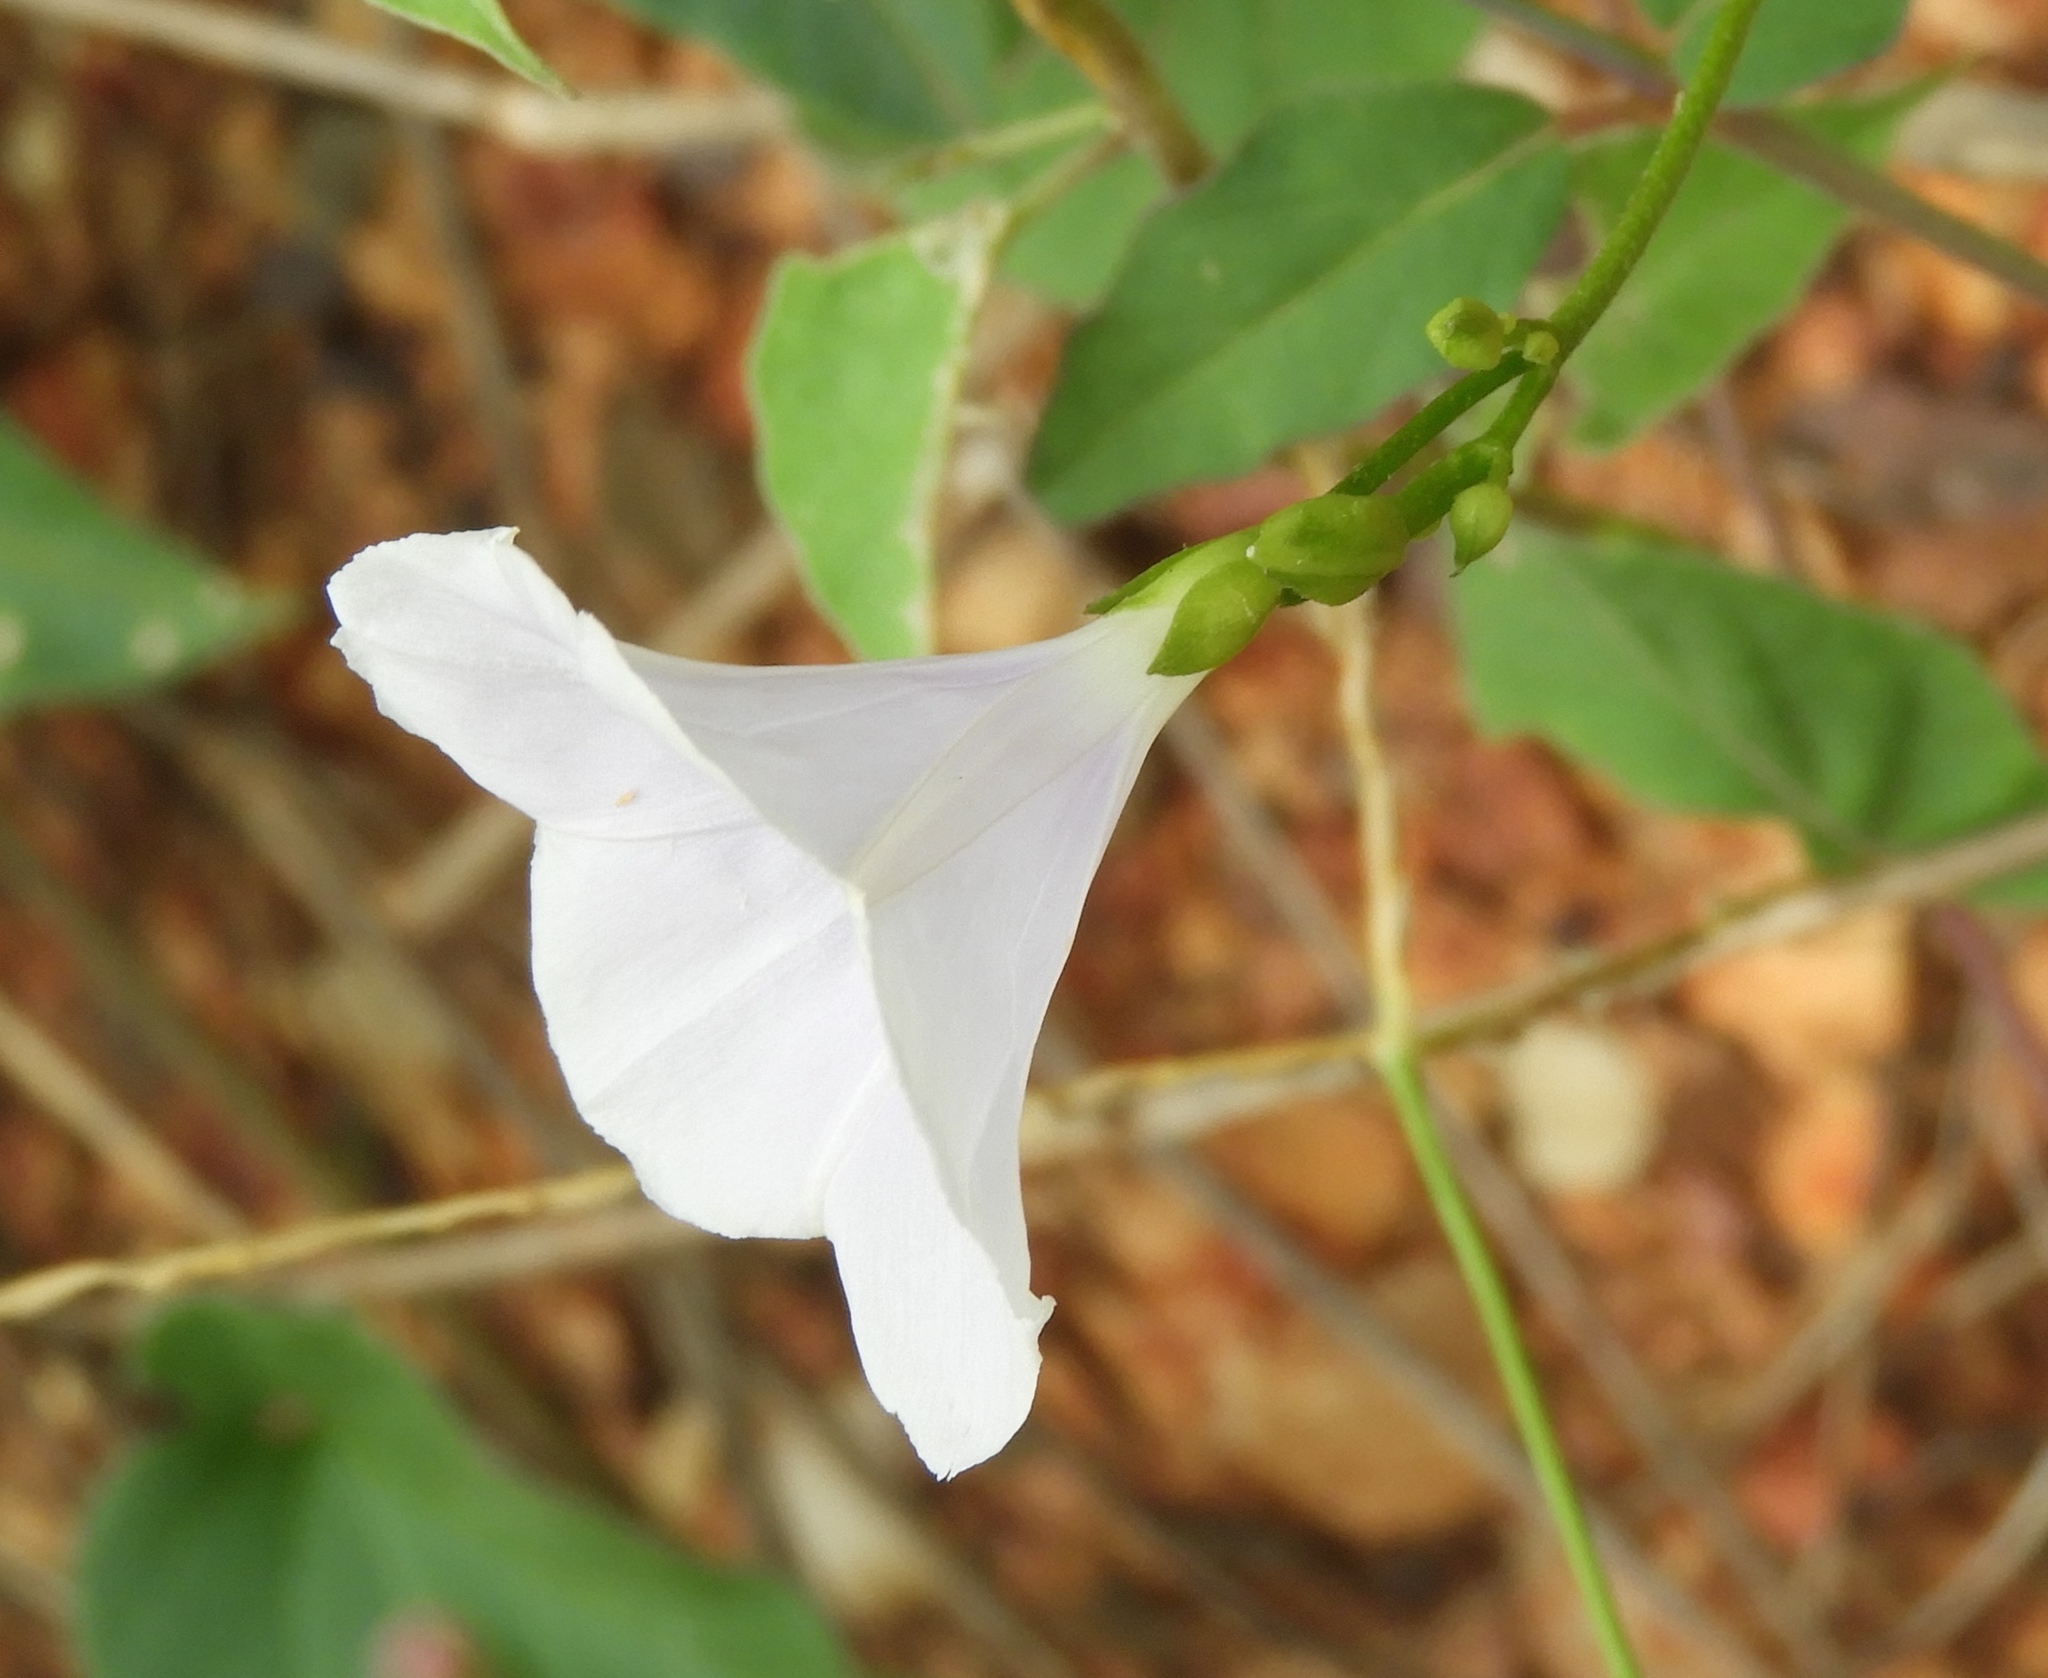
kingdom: Plantae
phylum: Tracheophyta
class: Magnoliopsida
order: Solanales
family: Convolvulaceae
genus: Jacquemontia
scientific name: Jacquemontia
